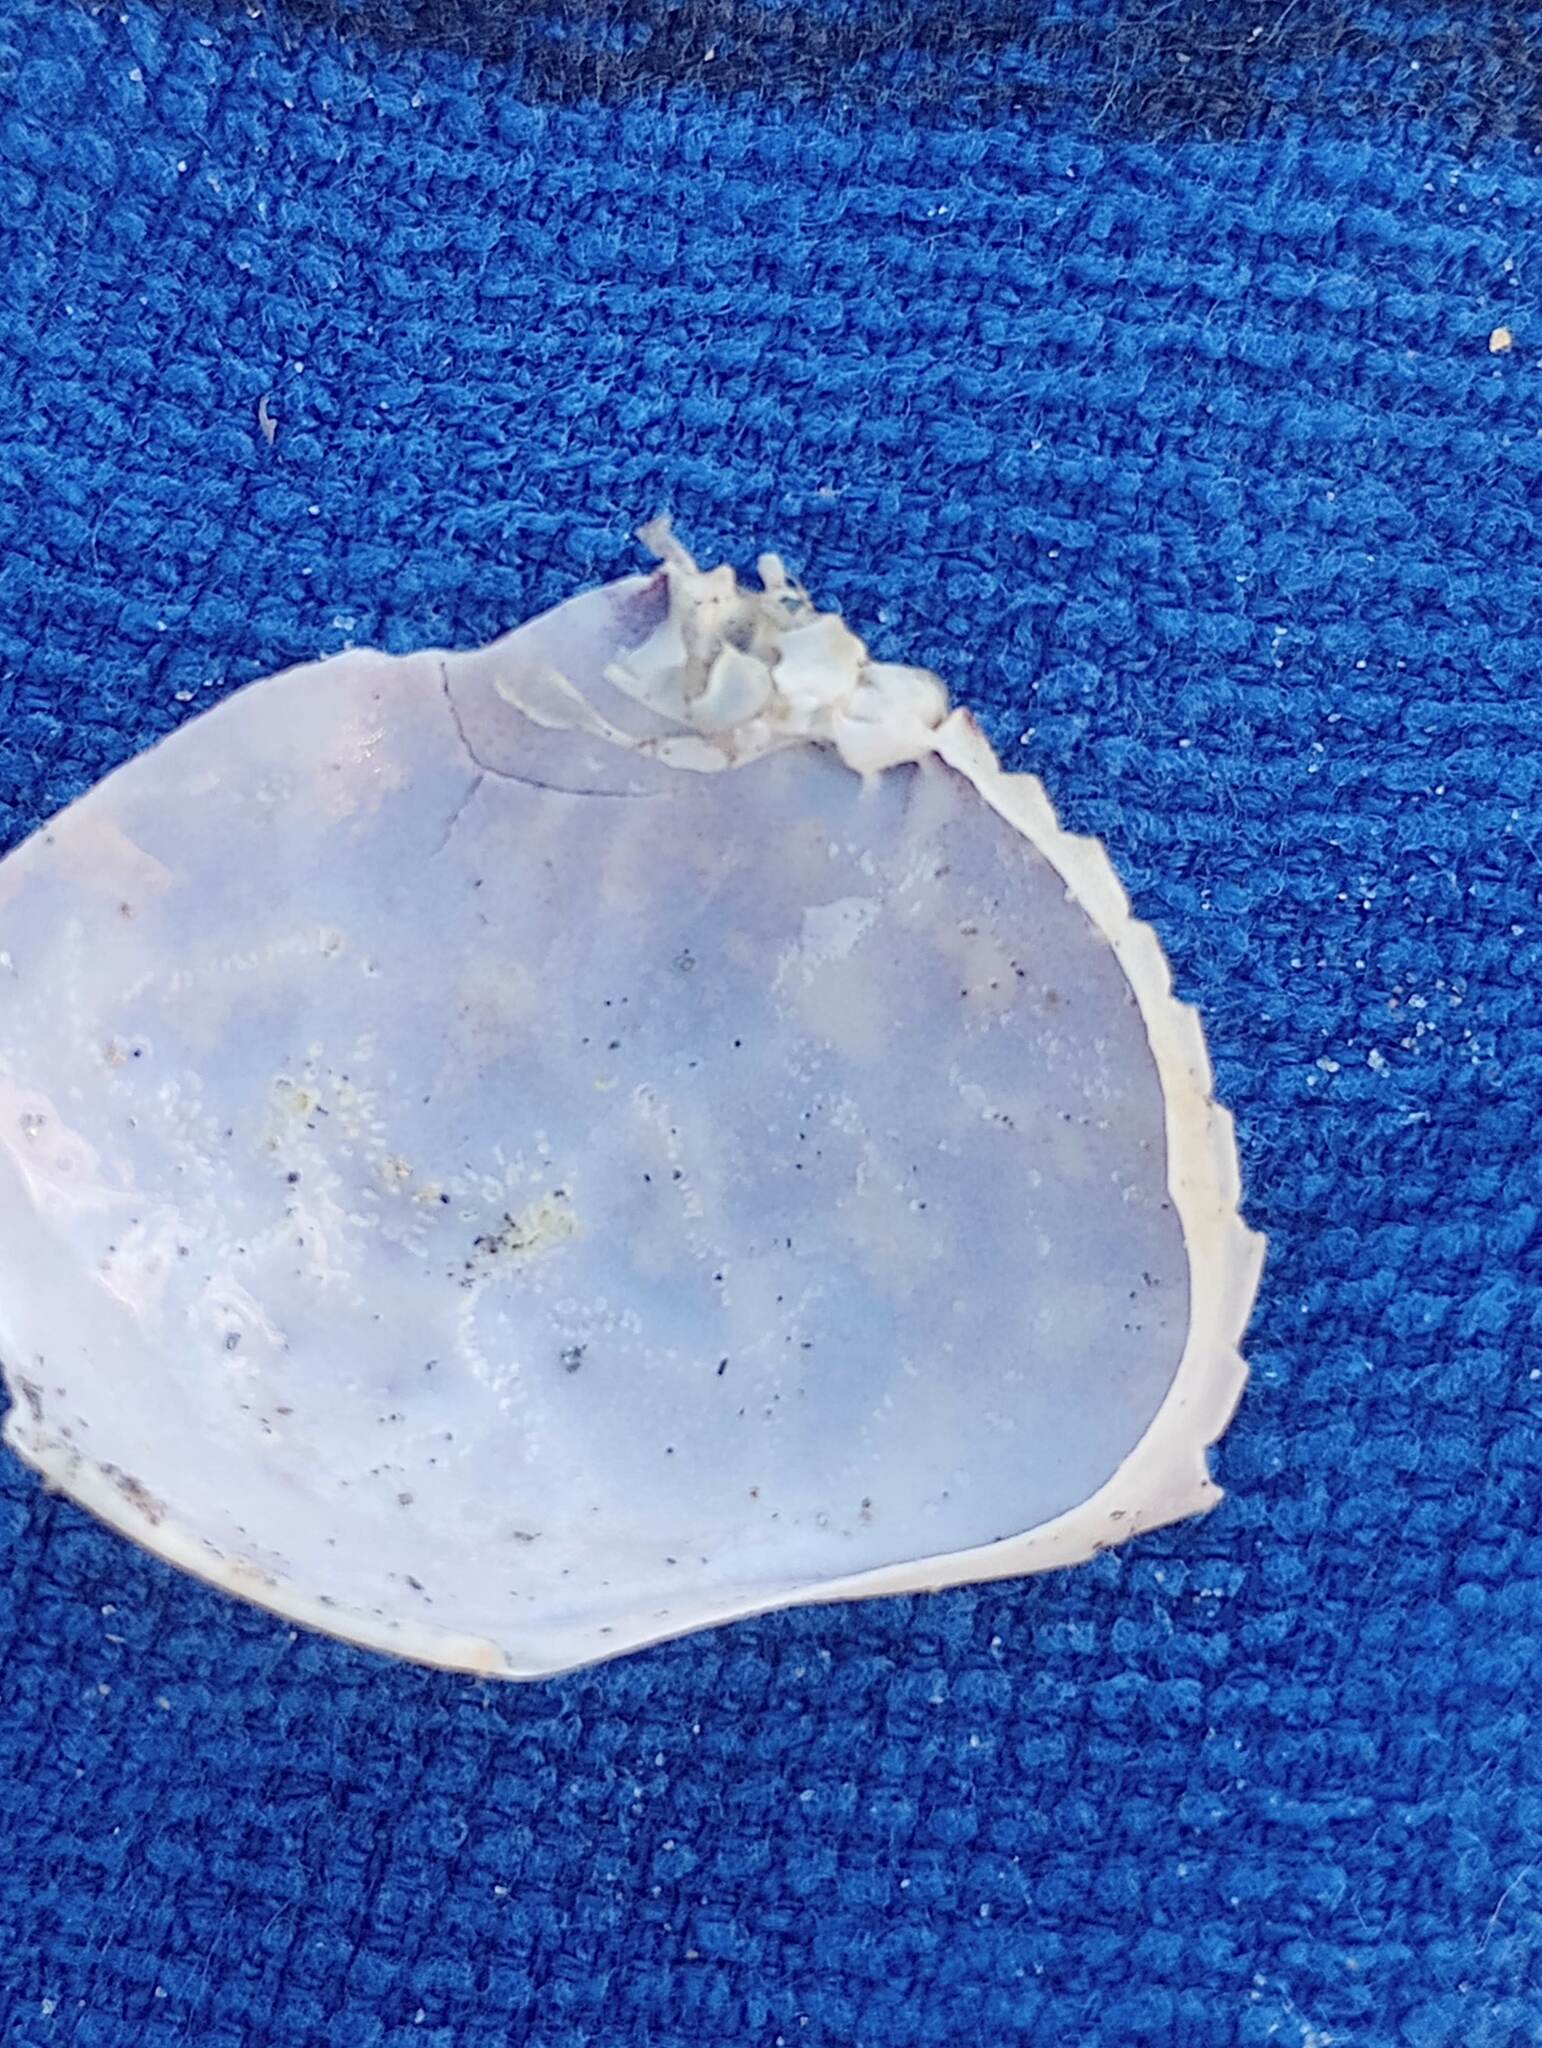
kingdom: Animalia
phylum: Arthropoda
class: Malacostraca
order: Decapoda
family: Cancridae
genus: Metacarcinus
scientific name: Metacarcinus gracilis
